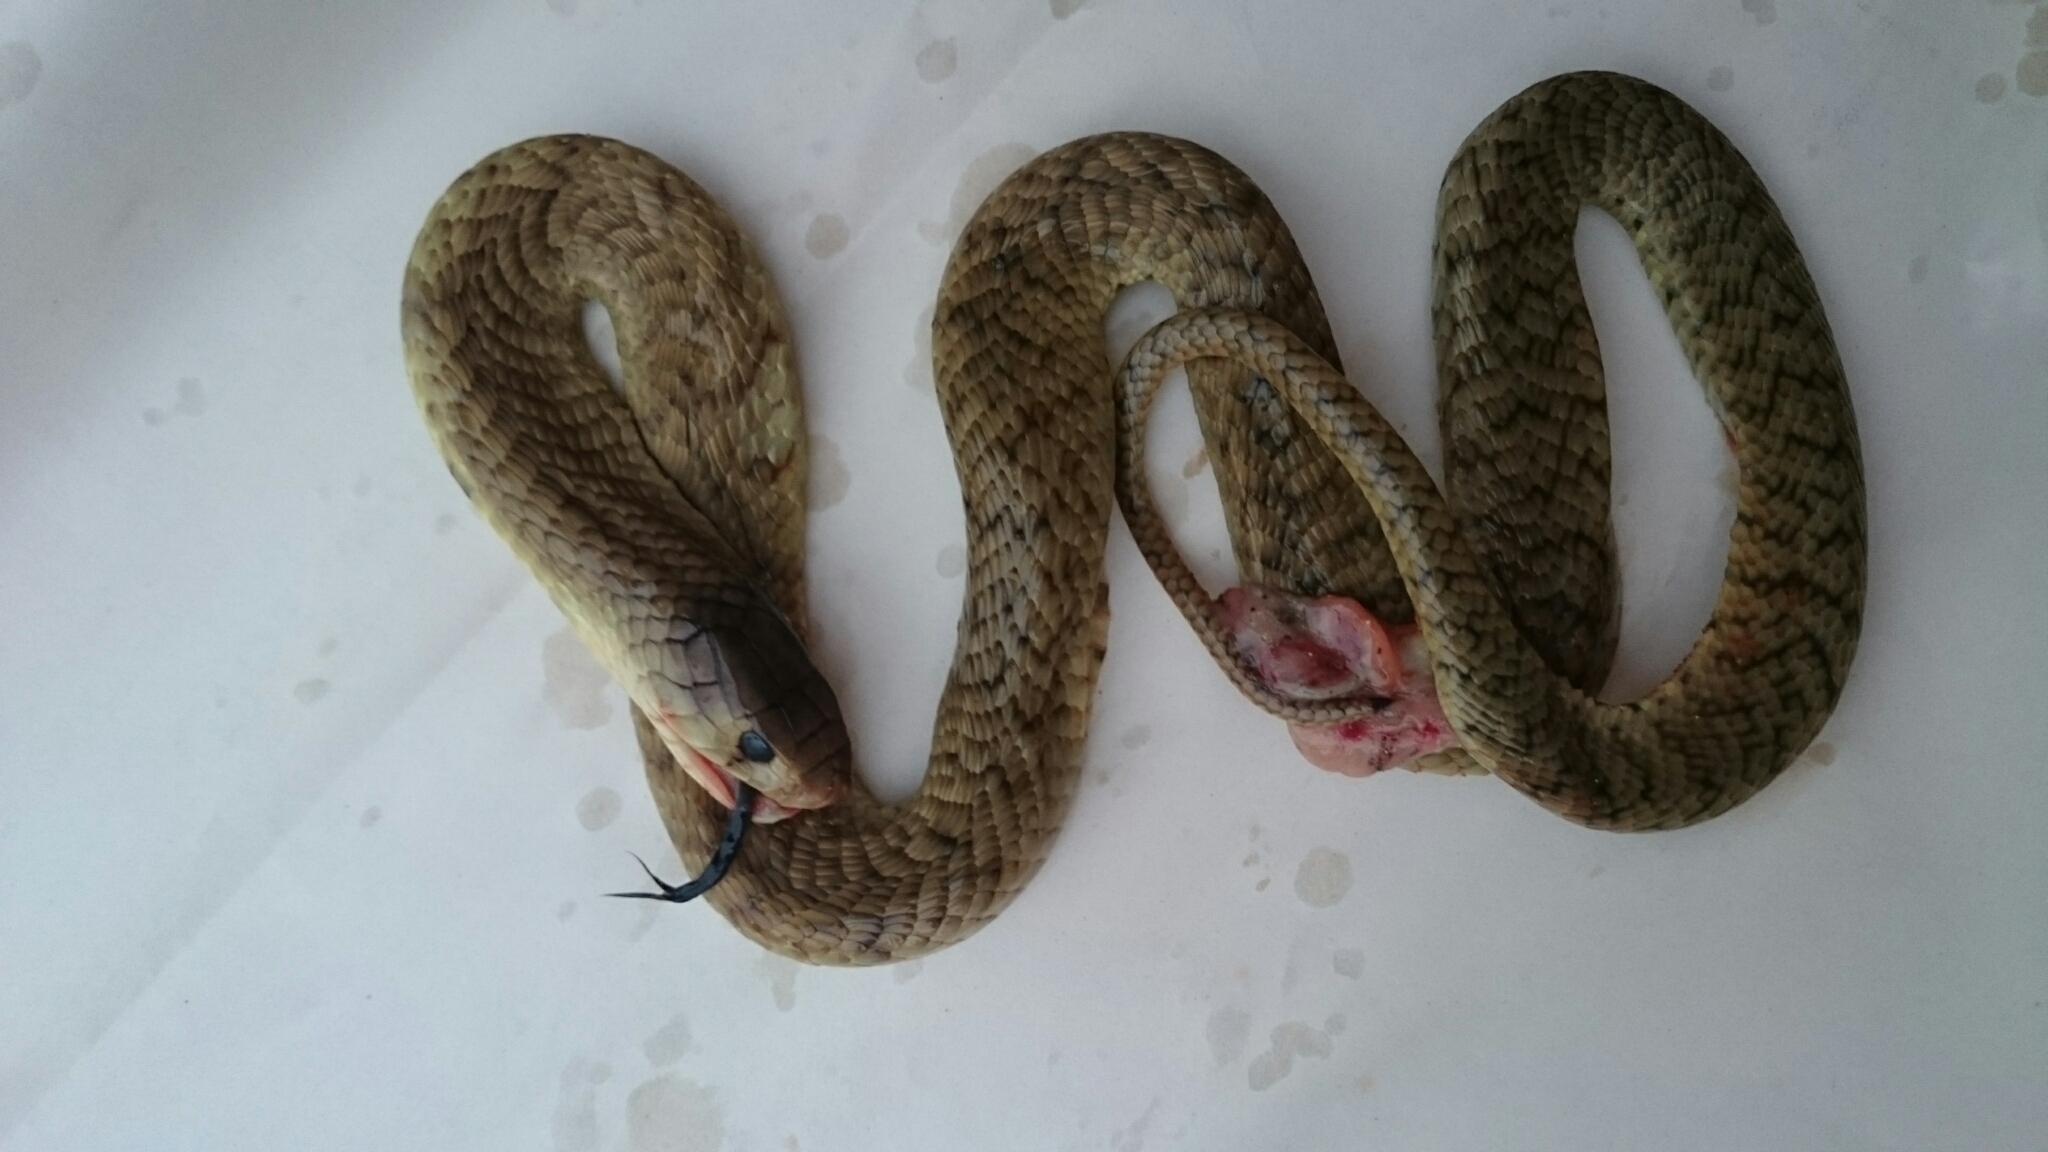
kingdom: Animalia
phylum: Chordata
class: Squamata
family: Elapidae
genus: Naja
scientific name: Naja annulifera
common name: Snouted cobra
